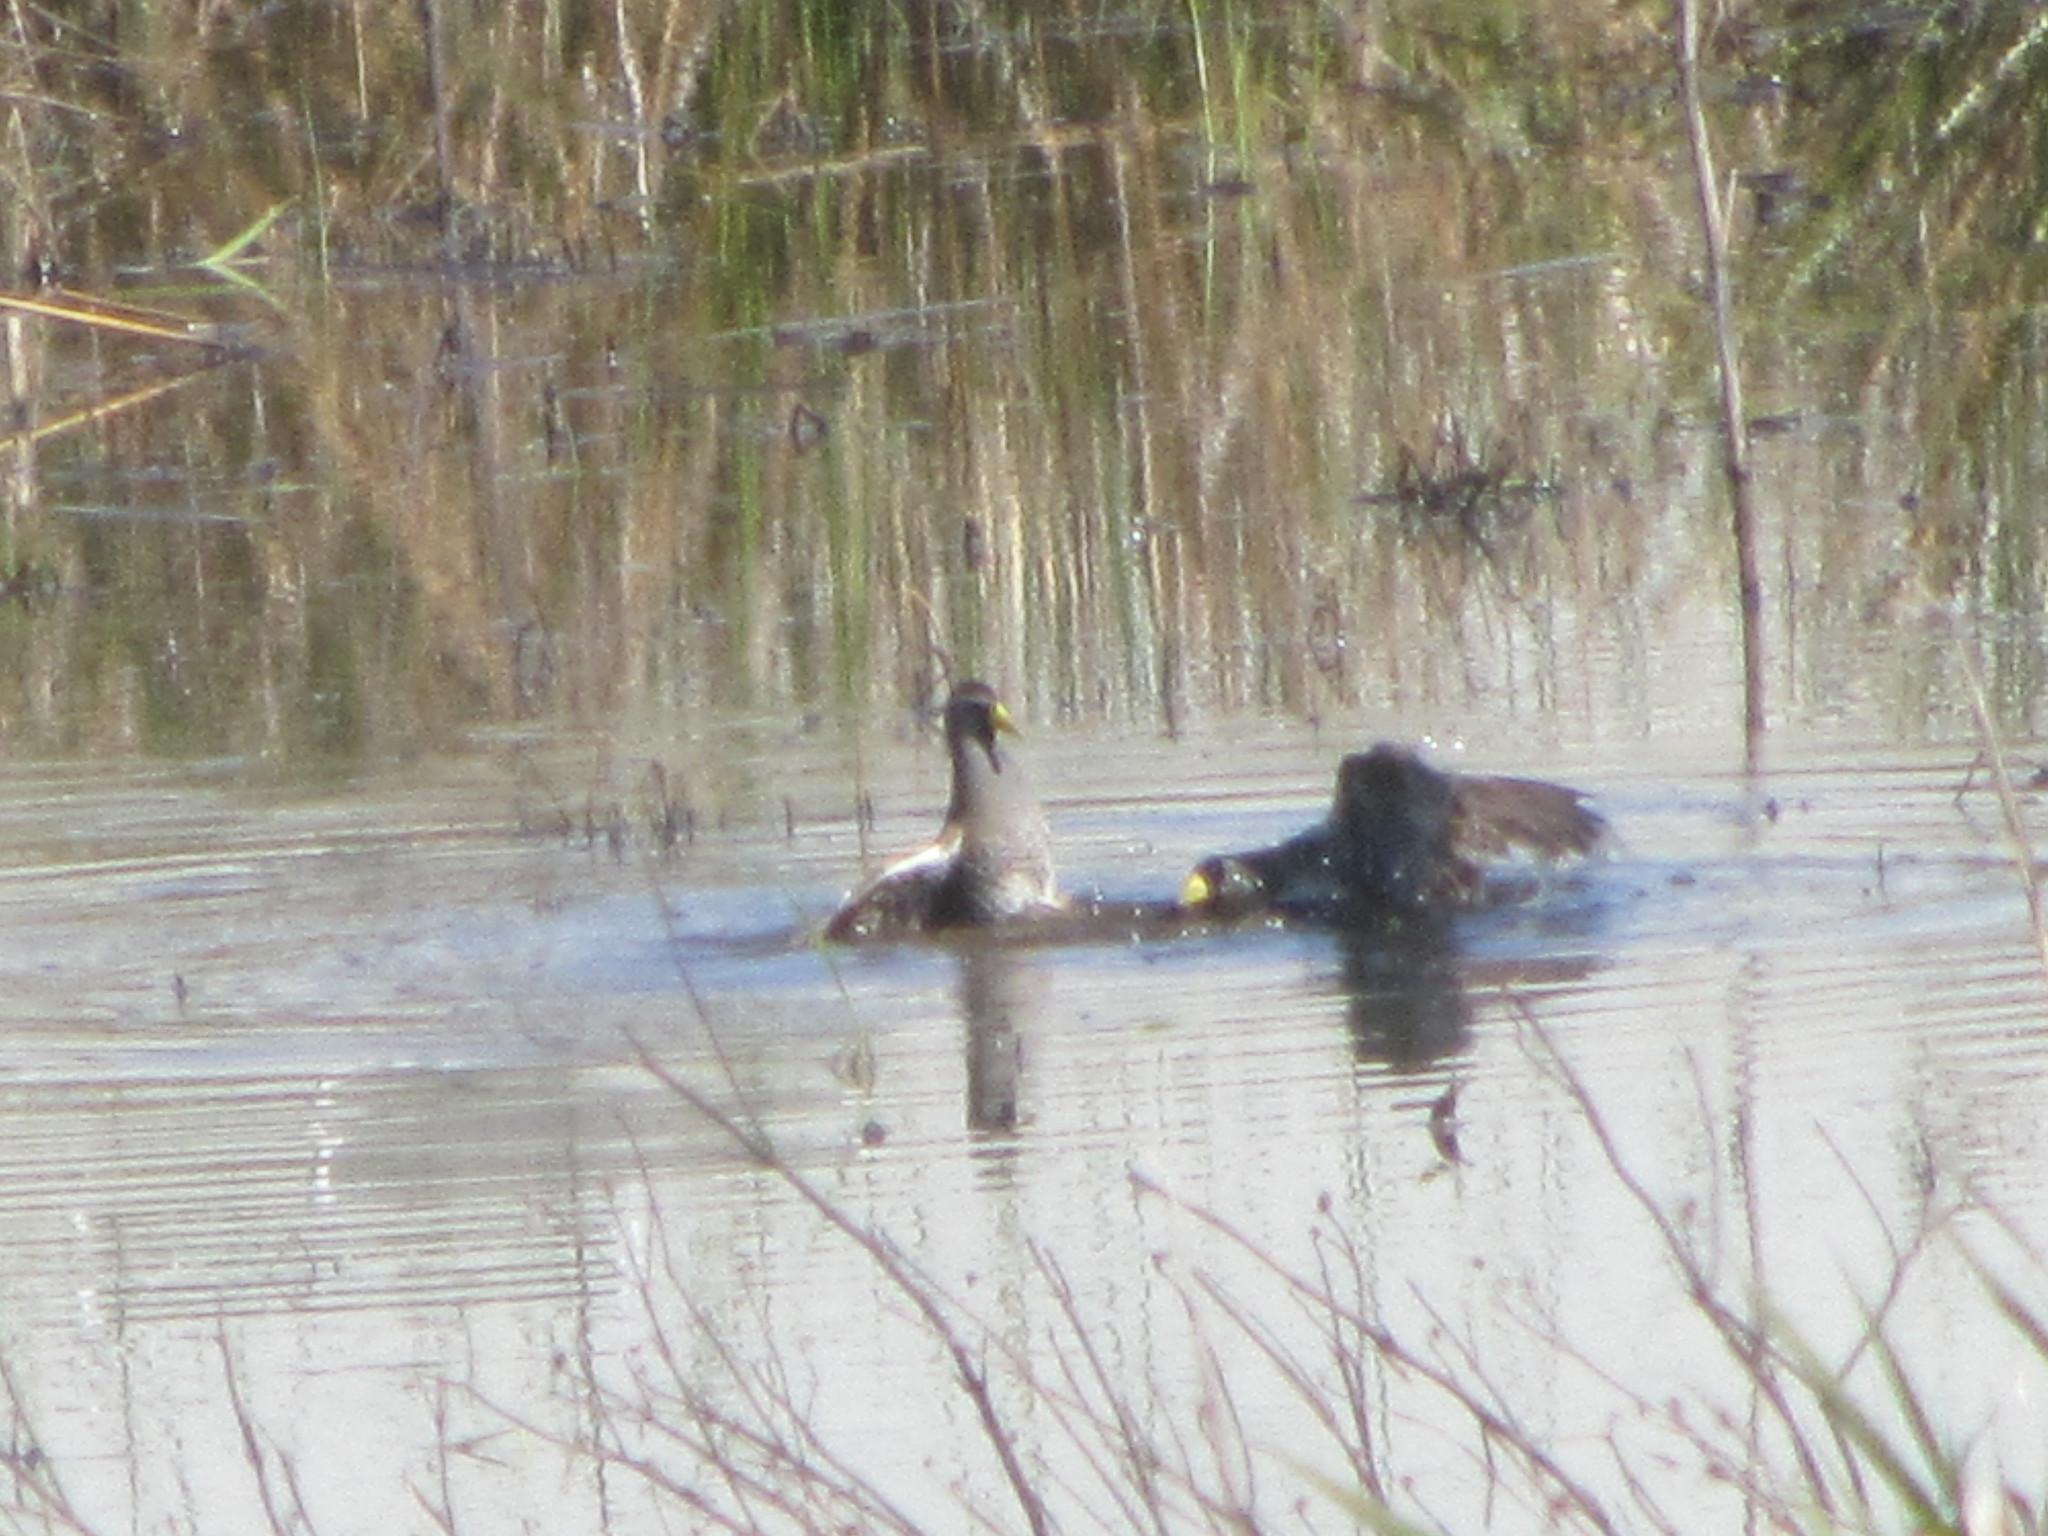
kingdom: Animalia
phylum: Chordata
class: Aves
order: Gruiformes
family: Rallidae
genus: Porzana
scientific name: Porzana carolina
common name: Sora
